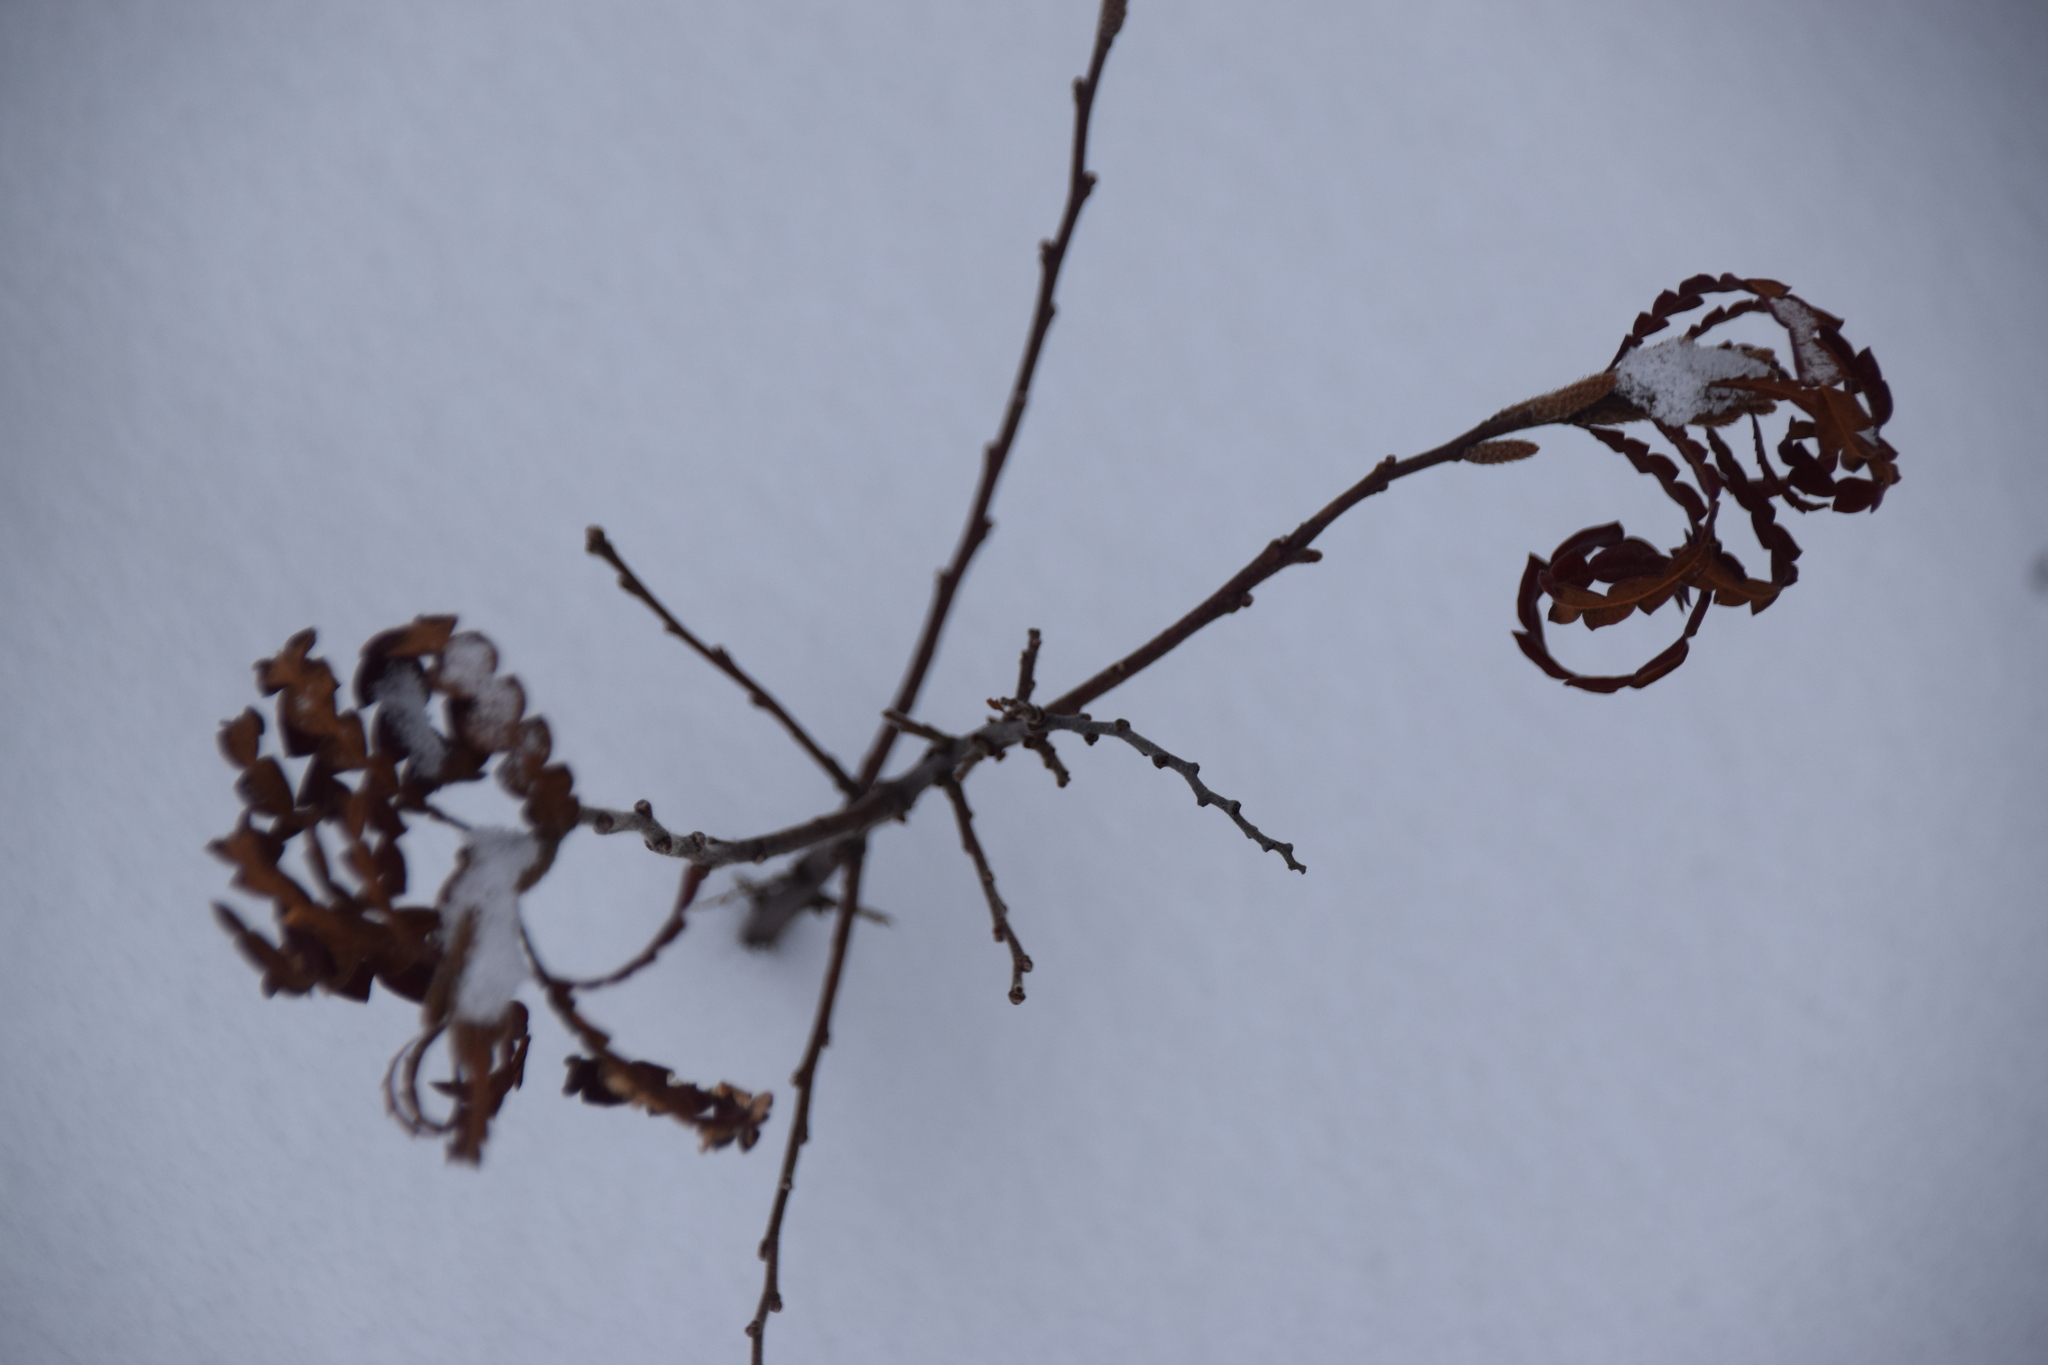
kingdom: Plantae
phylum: Tracheophyta
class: Magnoliopsida
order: Fagales
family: Myricaceae
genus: Comptonia
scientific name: Comptonia peregrina
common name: Sweet-fern
